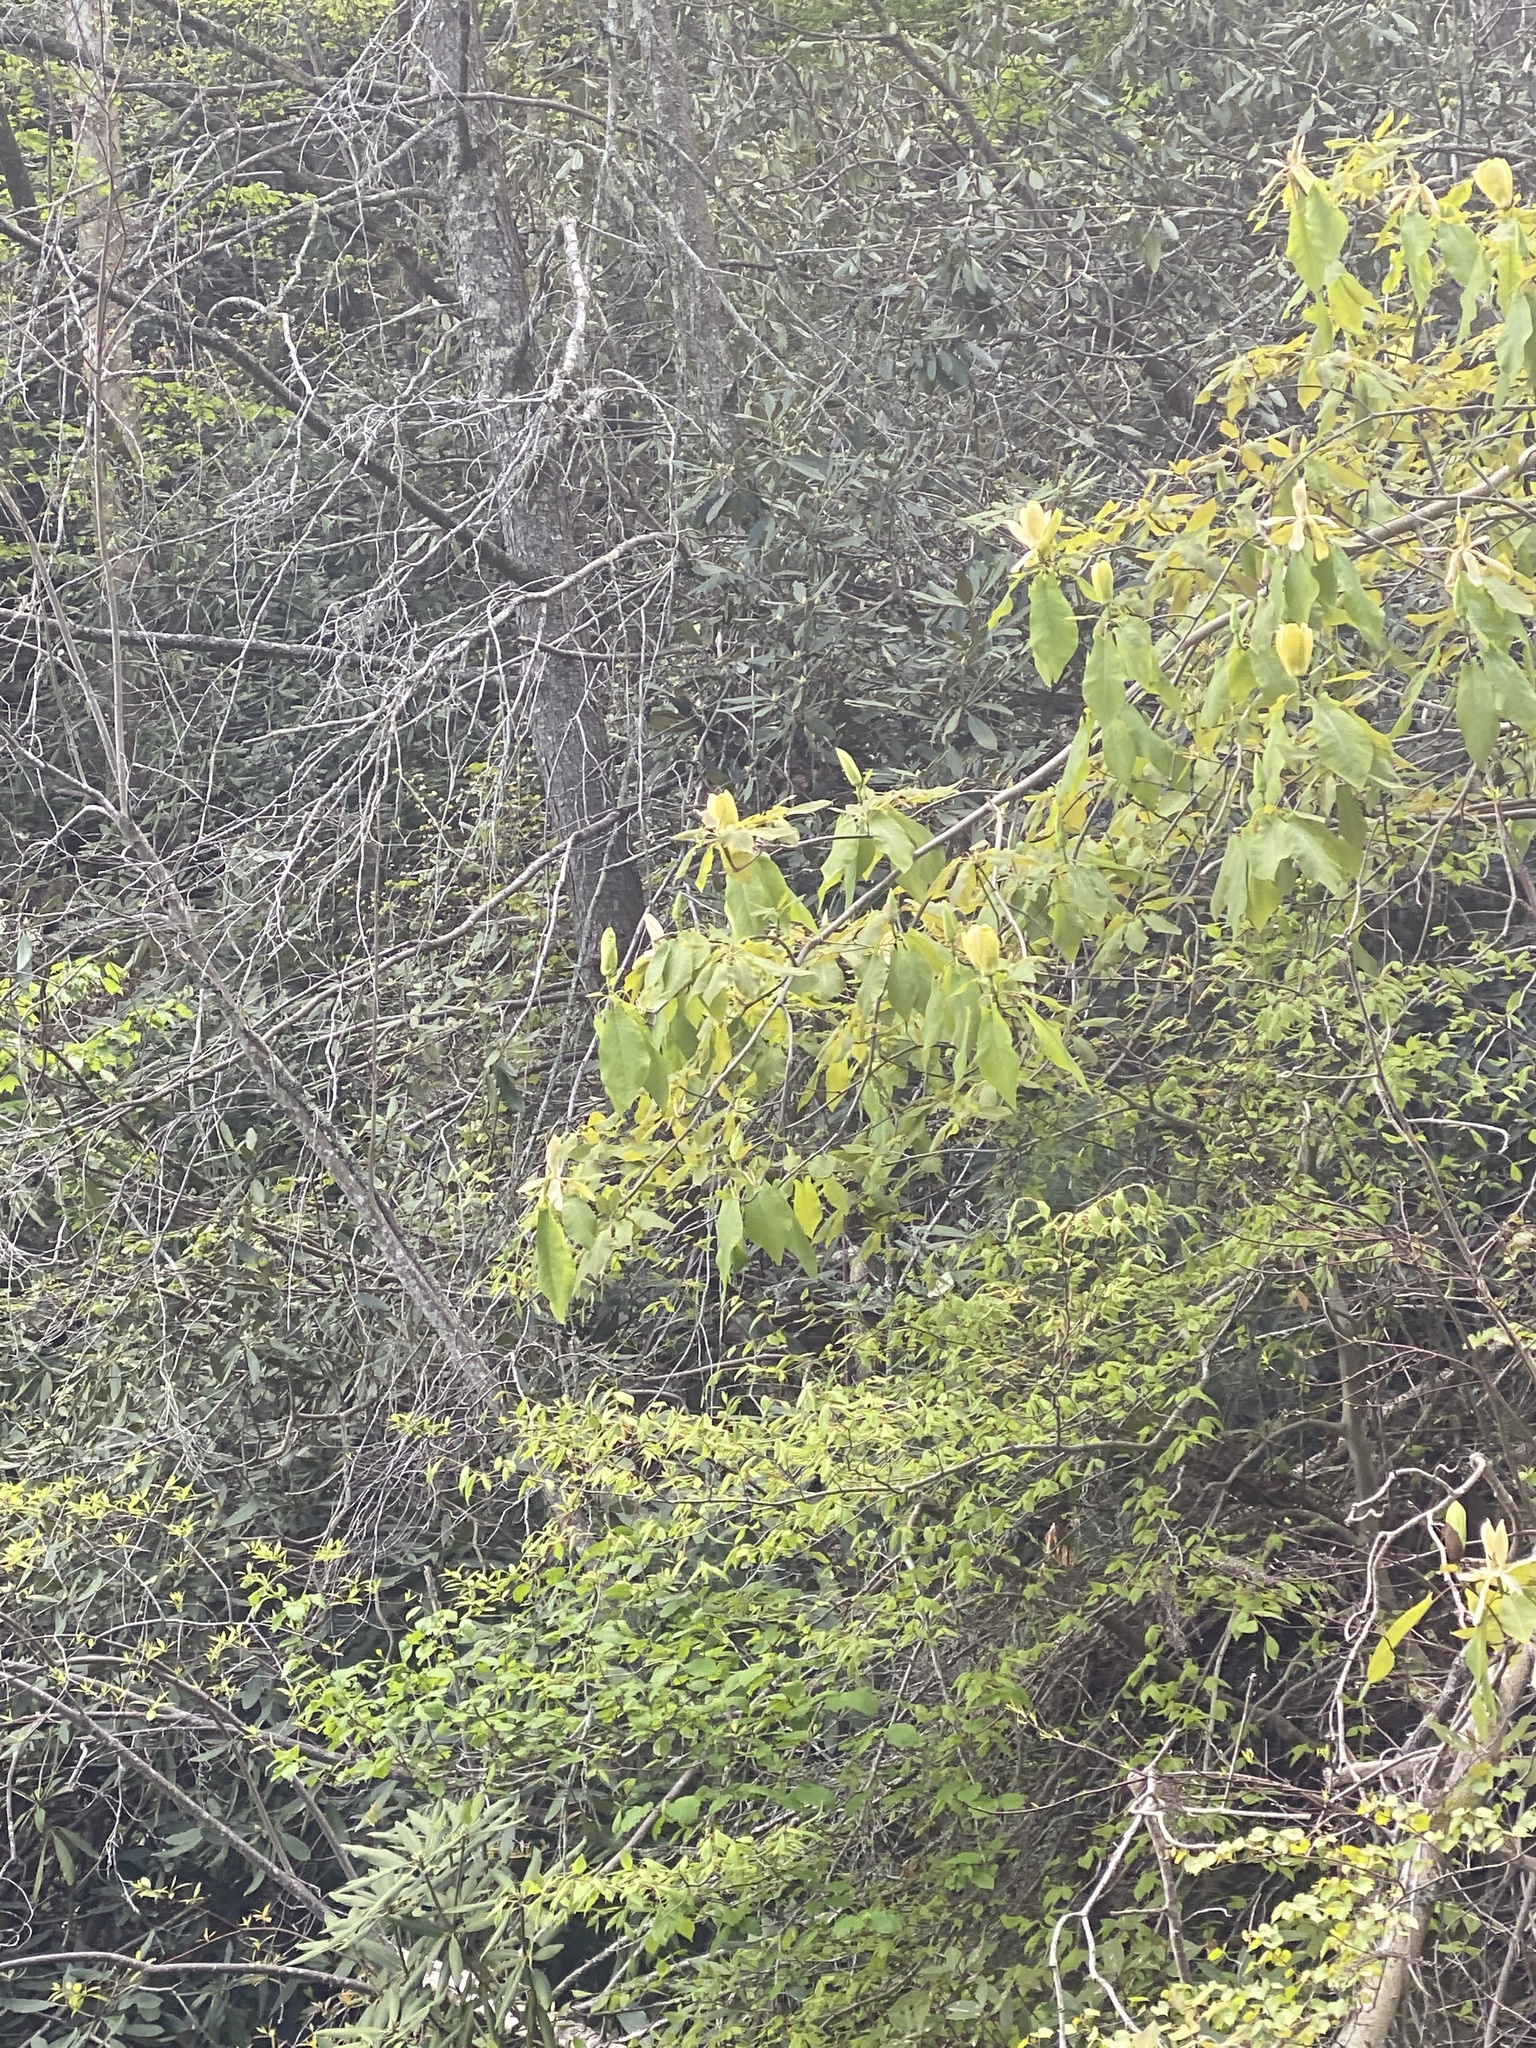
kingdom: Plantae
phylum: Tracheophyta
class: Magnoliopsida
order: Magnoliales
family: Magnoliaceae
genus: Magnolia
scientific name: Magnolia fraseri
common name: Fraser's magnolia
